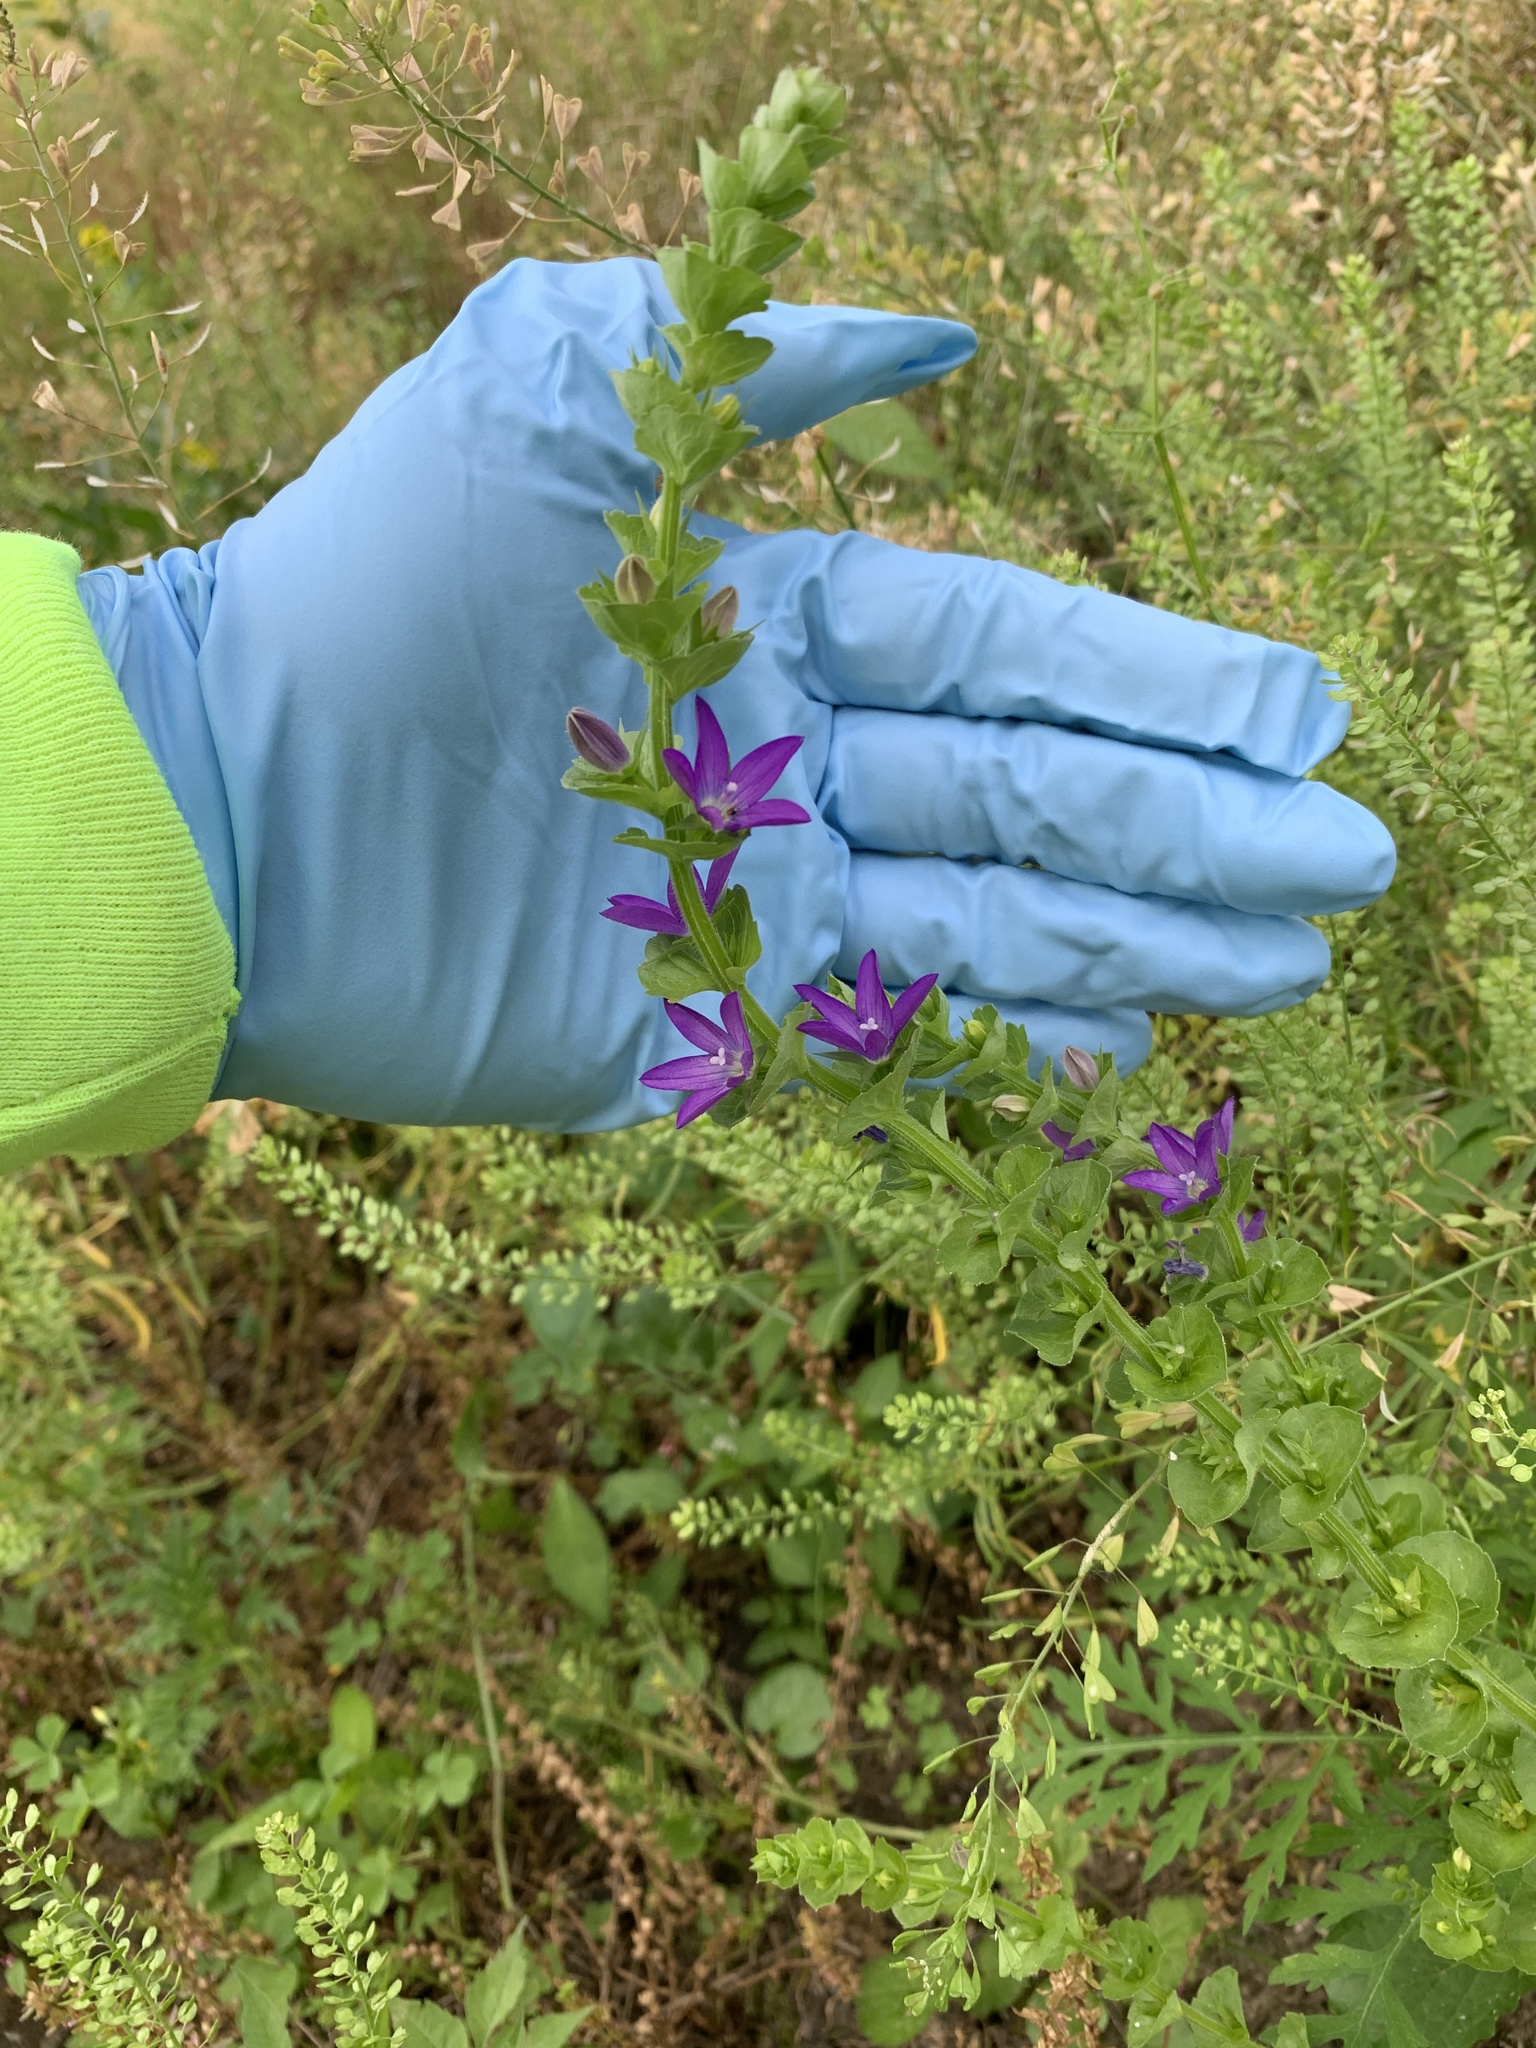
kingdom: Plantae
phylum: Tracheophyta
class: Magnoliopsida
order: Asterales
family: Campanulaceae
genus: Triodanis
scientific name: Triodanis perfoliata
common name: Clasping venus' looking-glass
